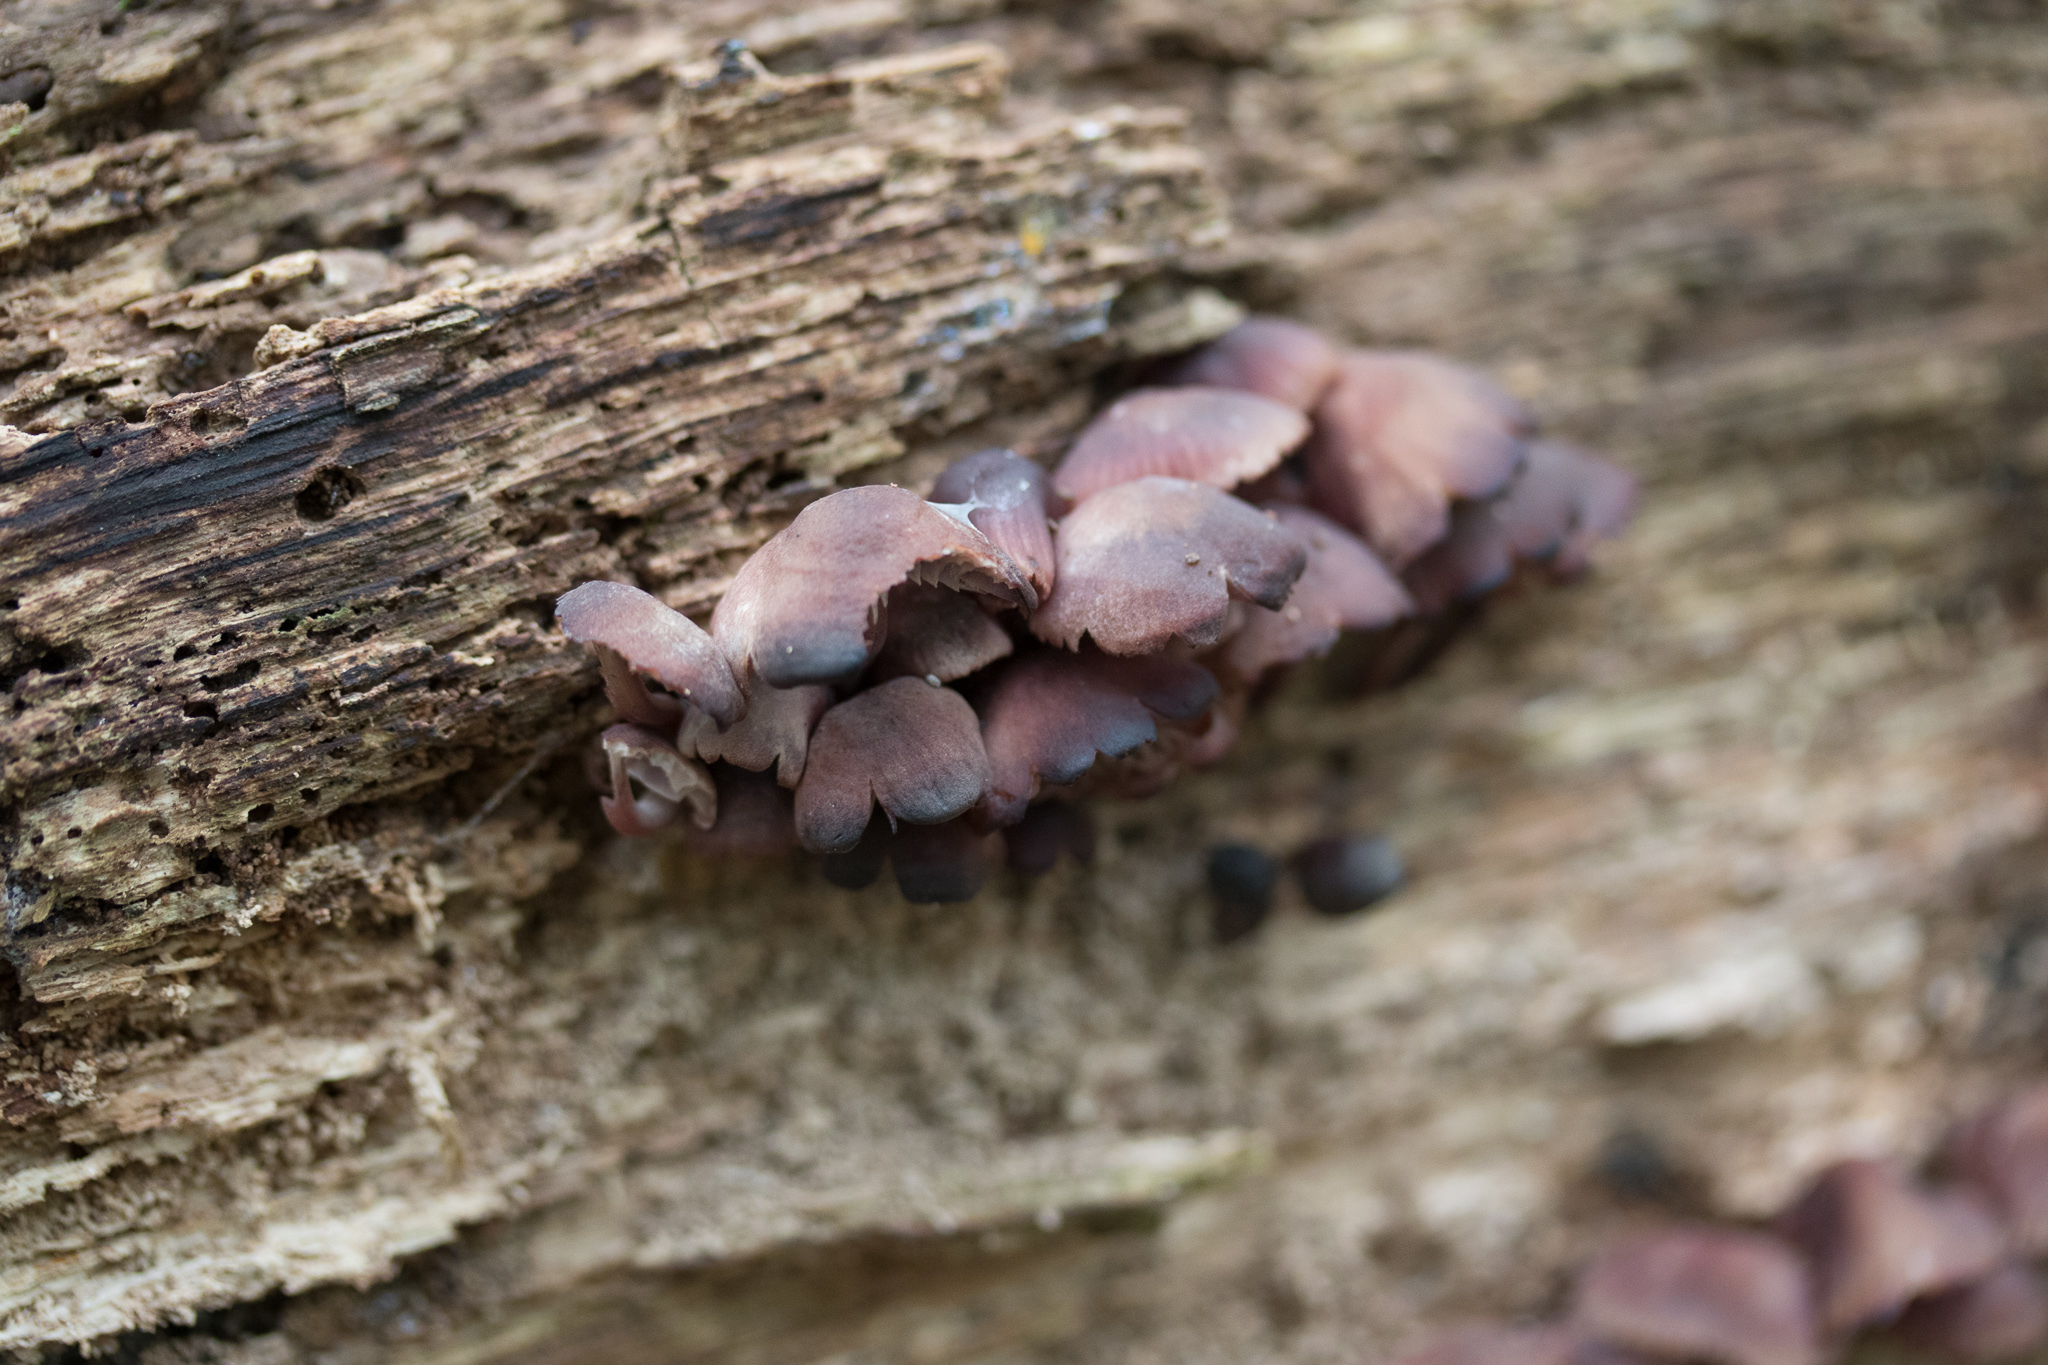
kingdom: Fungi
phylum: Basidiomycota
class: Agaricomycetes
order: Agaricales
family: Mycenaceae
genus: Mycena
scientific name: Mycena haematopus
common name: Burgundydrop bonnet
